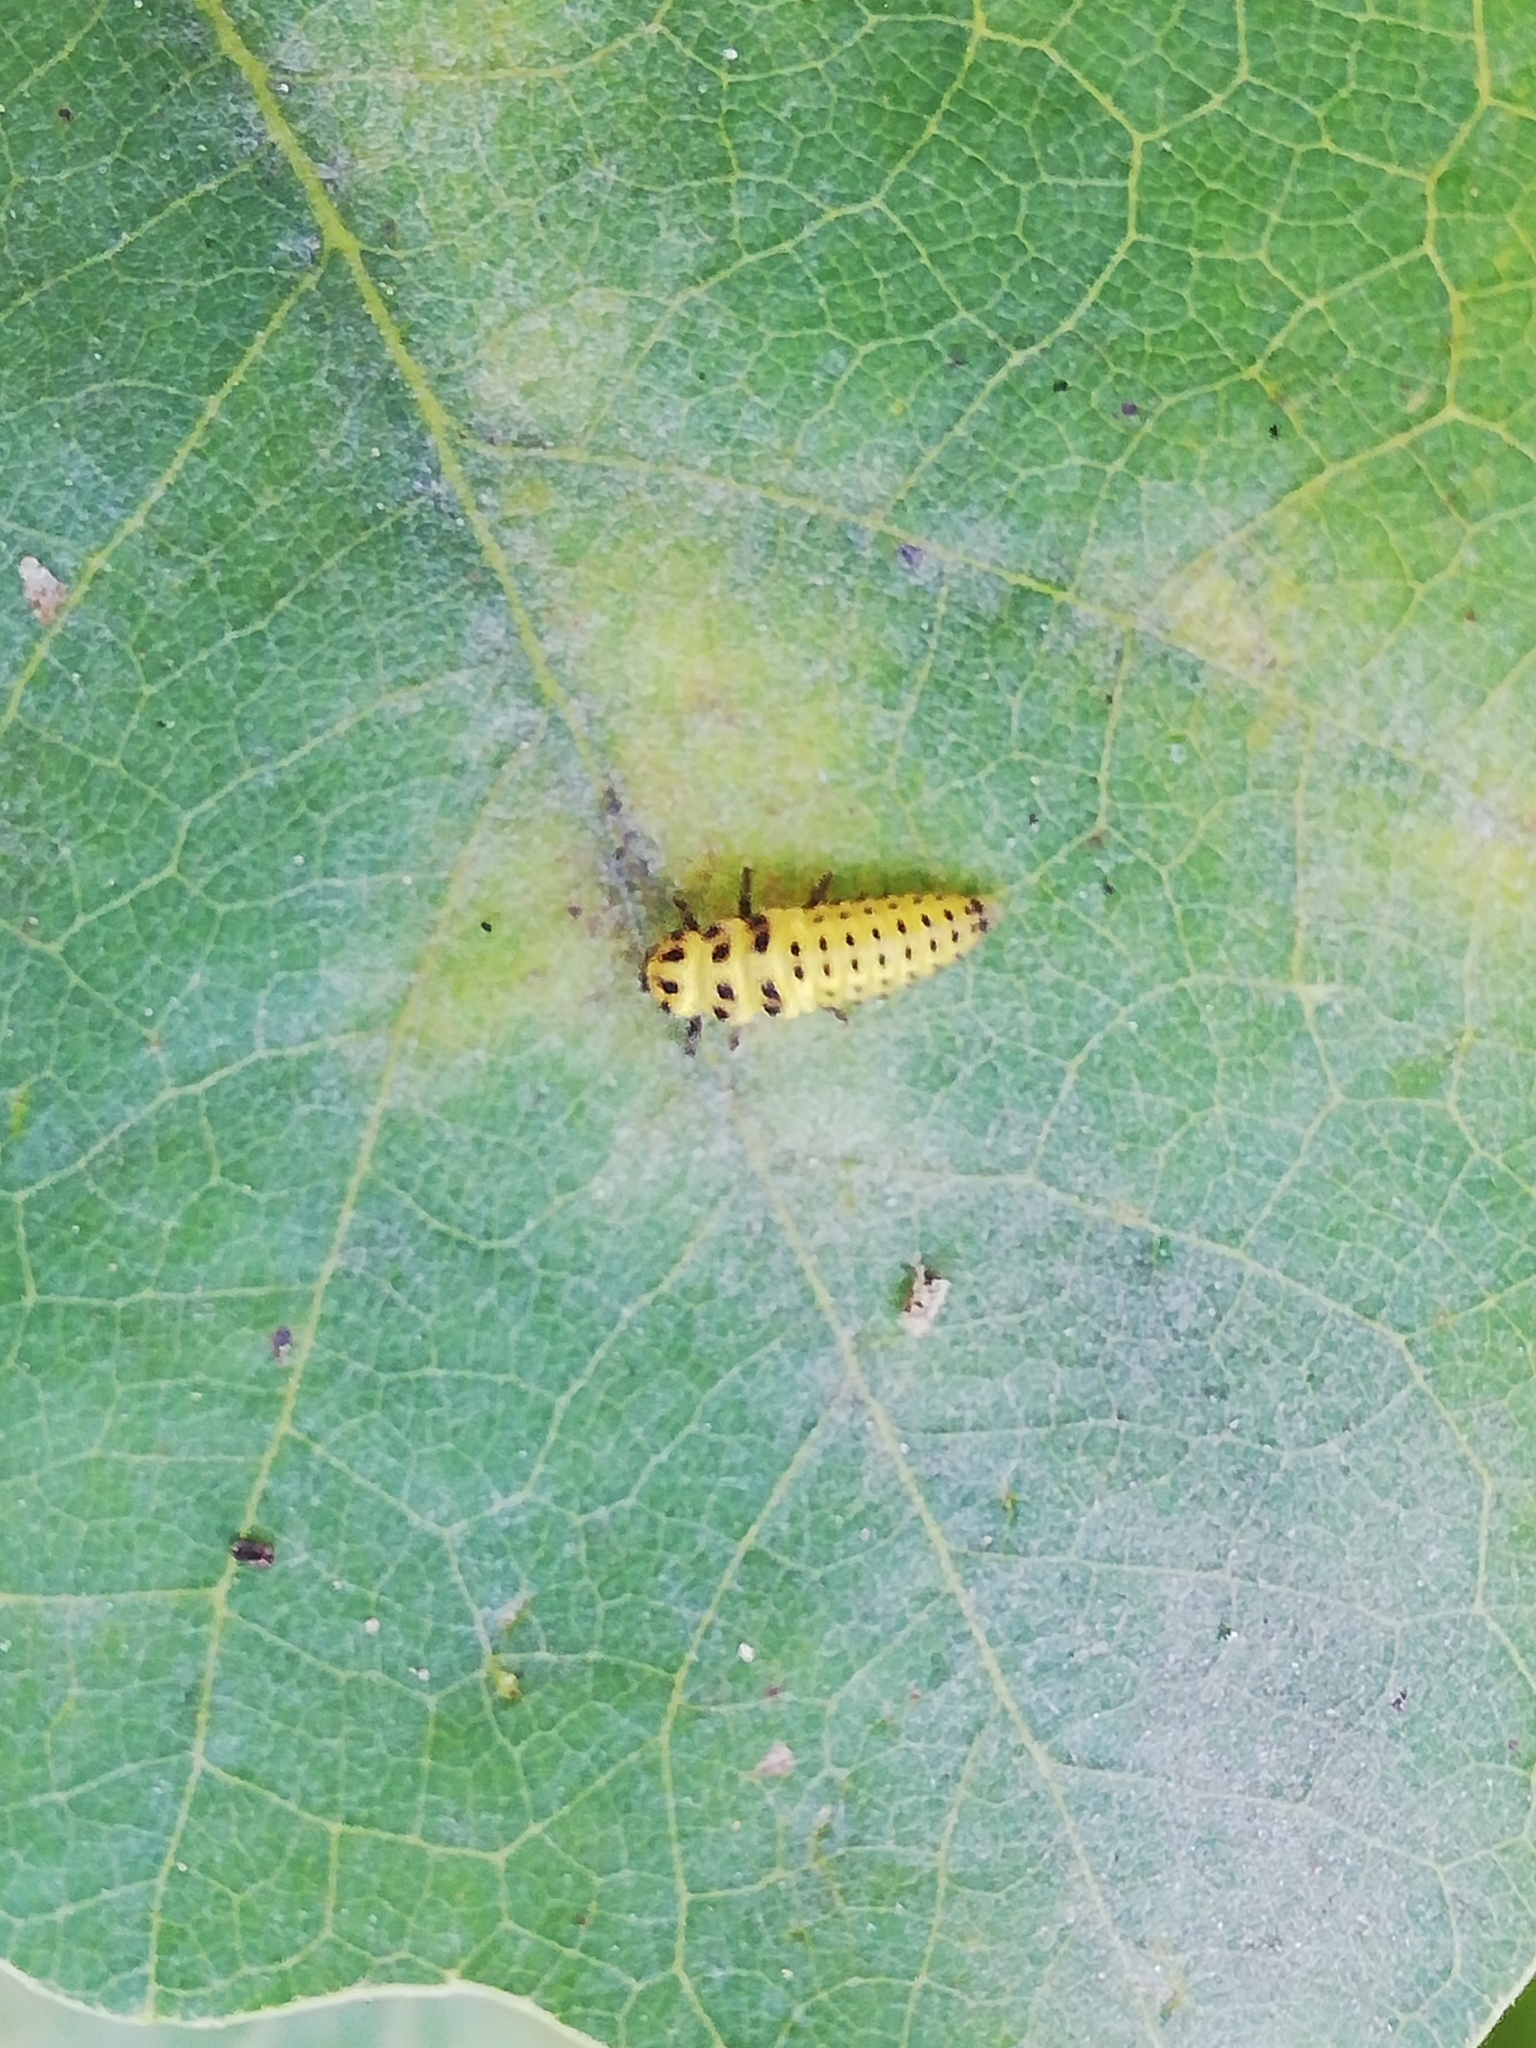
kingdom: Animalia
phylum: Arthropoda
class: Insecta
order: Coleoptera
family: Coccinellidae
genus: Psyllobora
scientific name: Psyllobora vigintiduopunctata
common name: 22-spot ladybird
